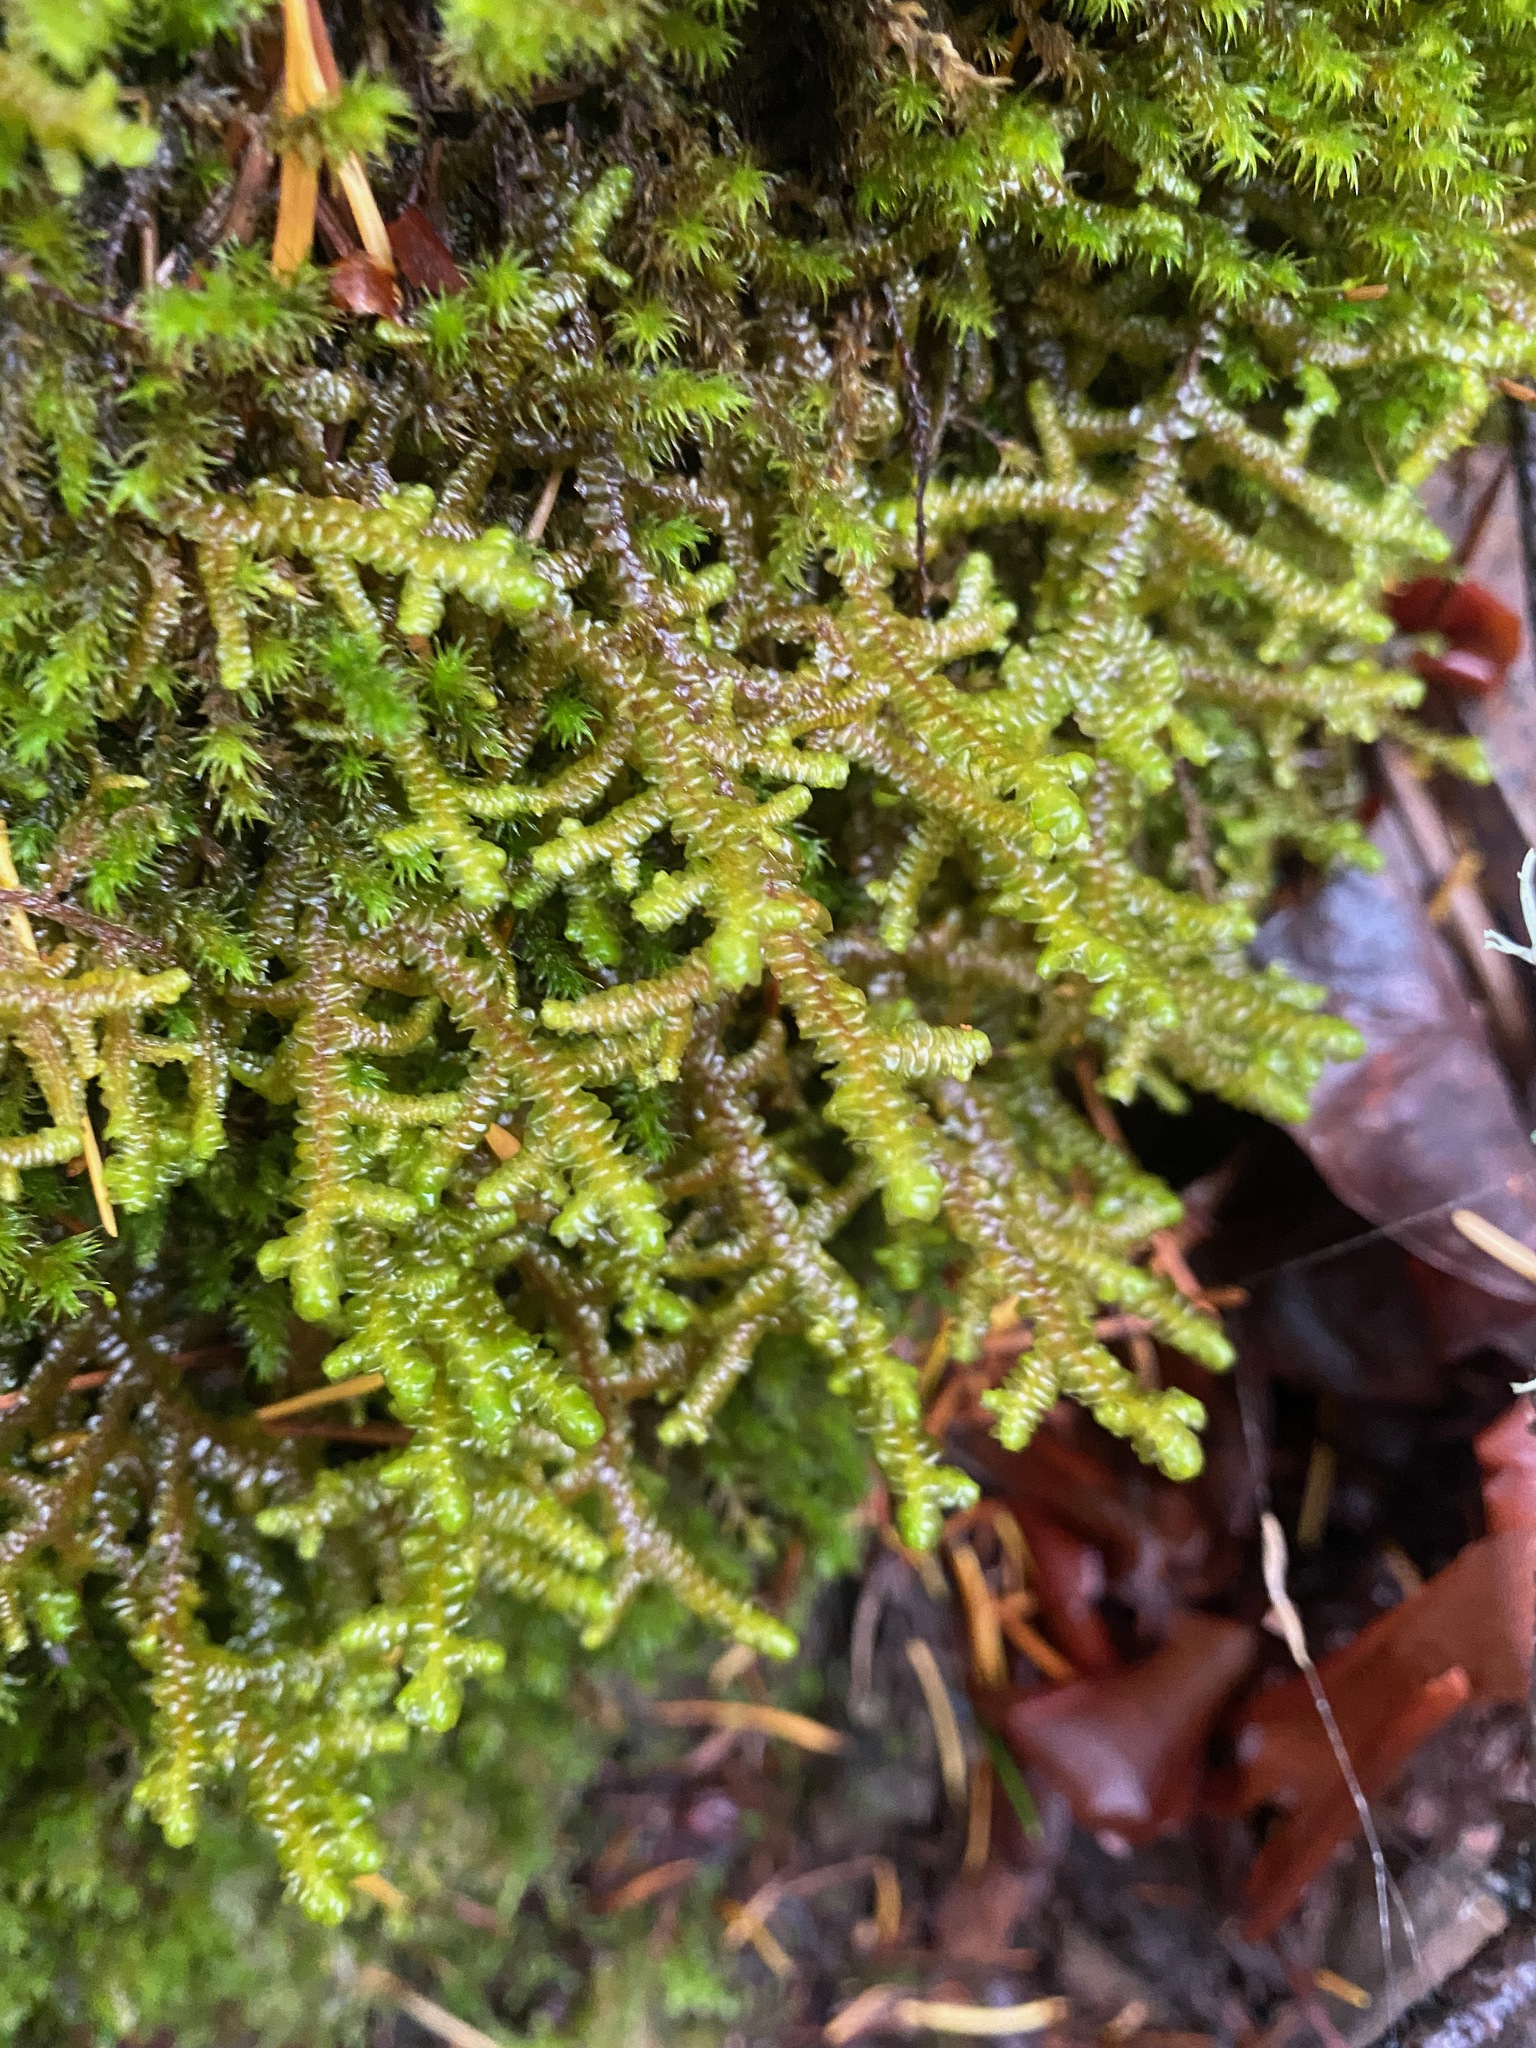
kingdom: Plantae
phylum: Marchantiophyta
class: Jungermanniopsida
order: Porellales
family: Porellaceae
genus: Porella
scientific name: Porella navicularis
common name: Tree ruffle liverwort
